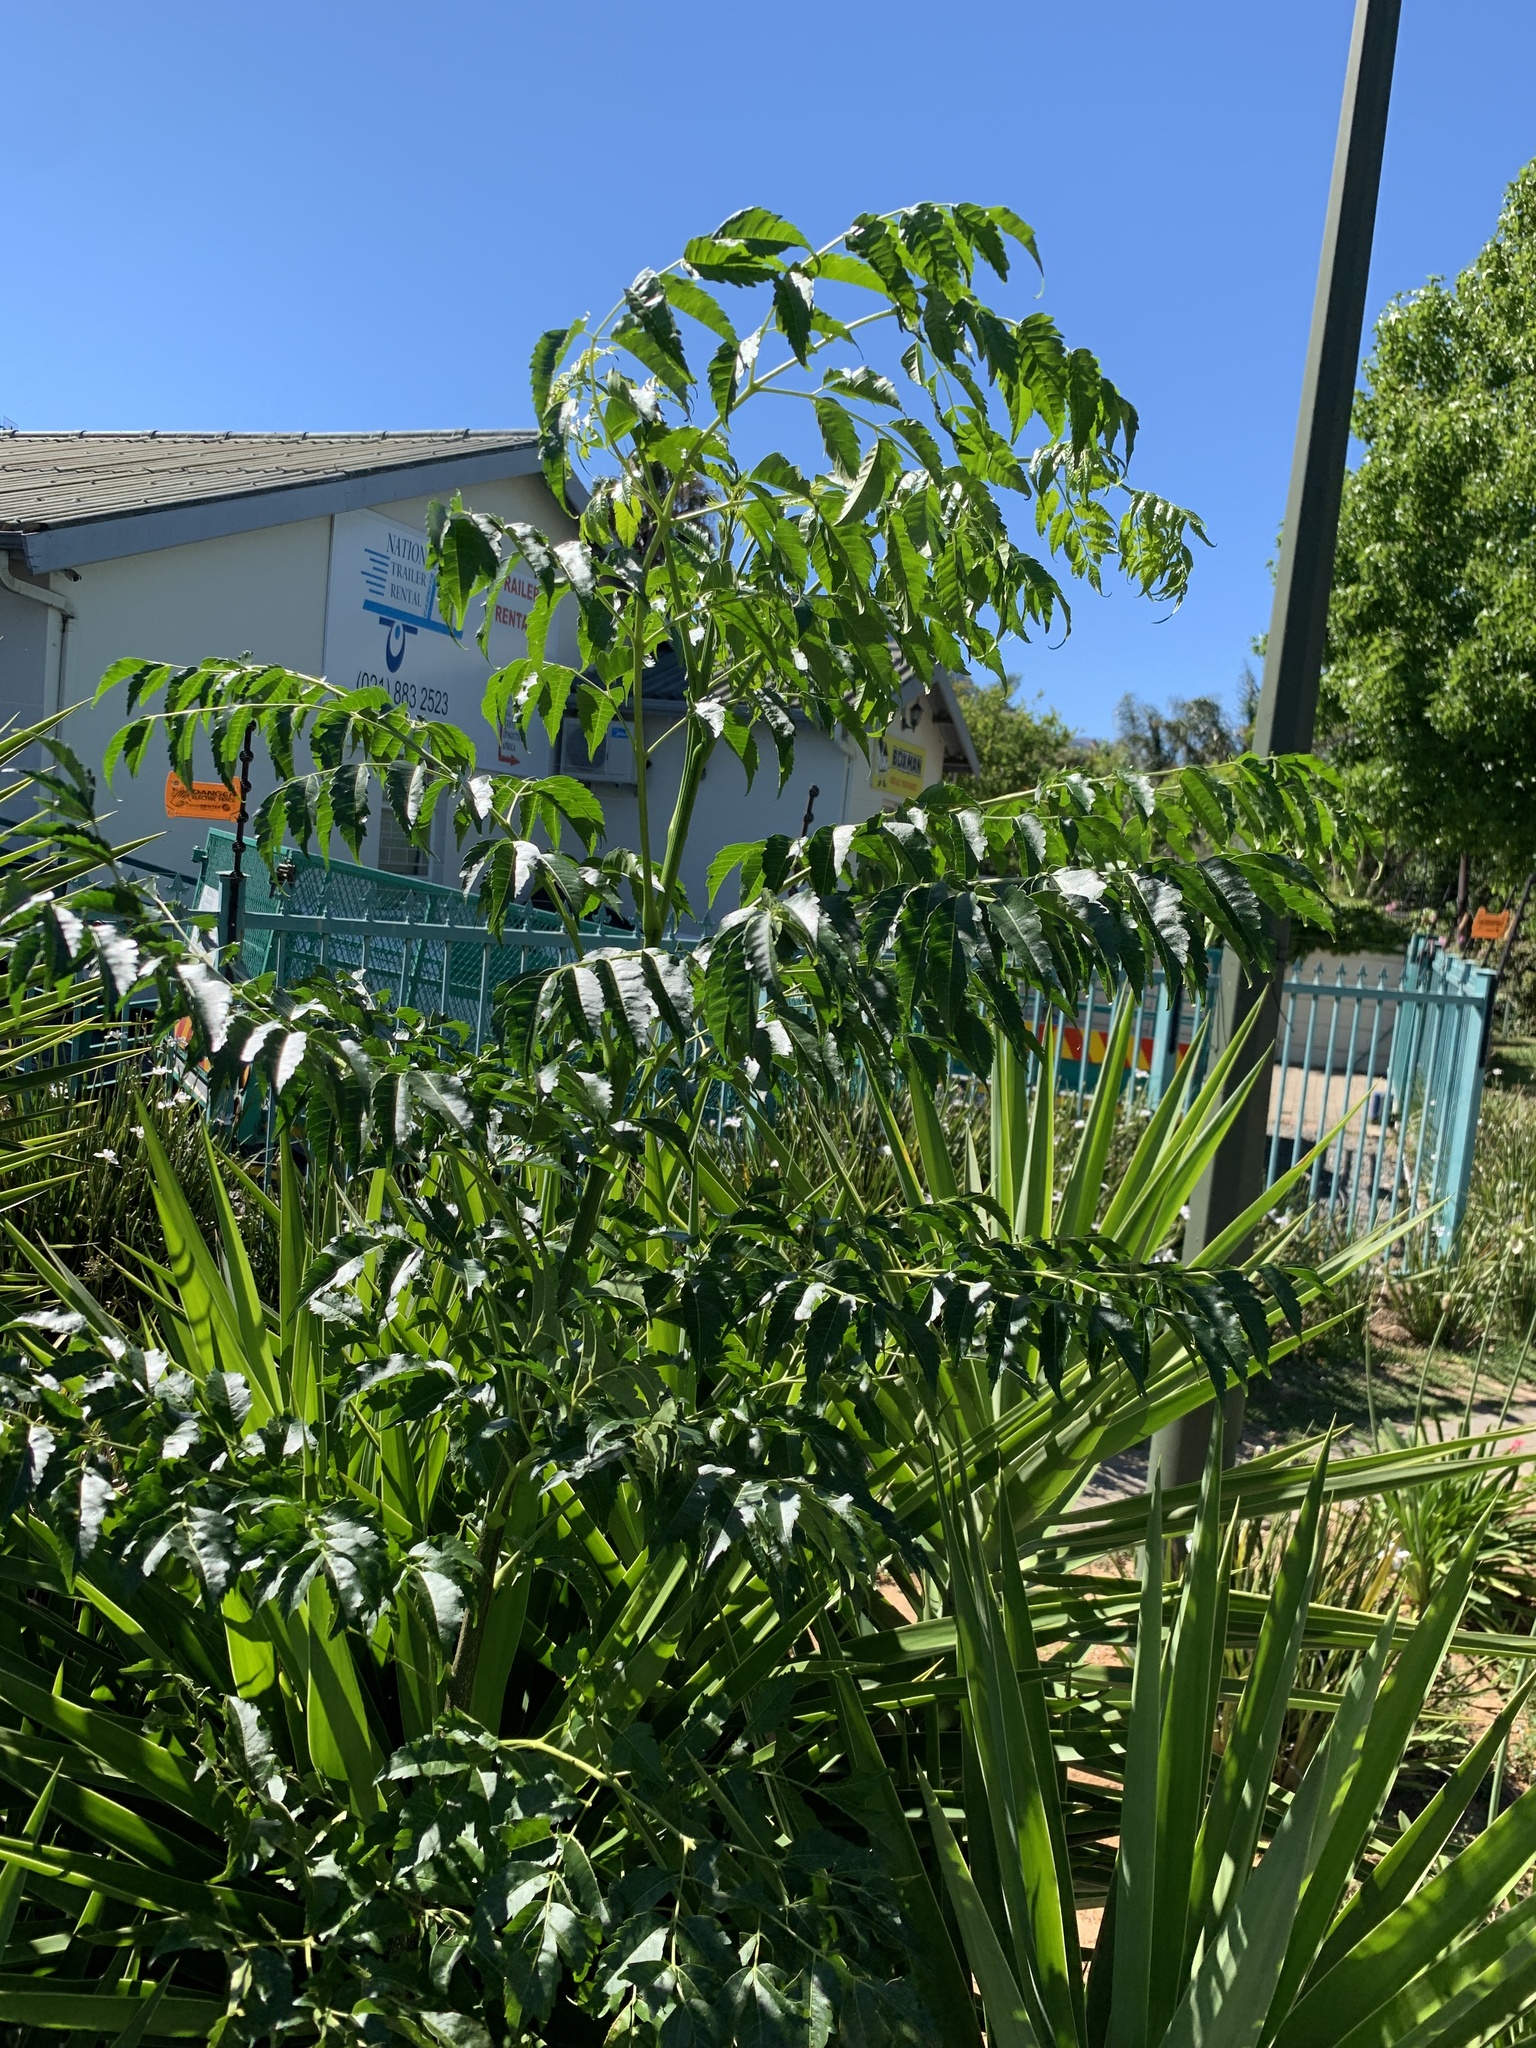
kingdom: Plantae
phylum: Tracheophyta
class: Magnoliopsida
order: Sapindales
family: Meliaceae
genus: Melia
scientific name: Melia azedarach
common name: Chinaberrytree
